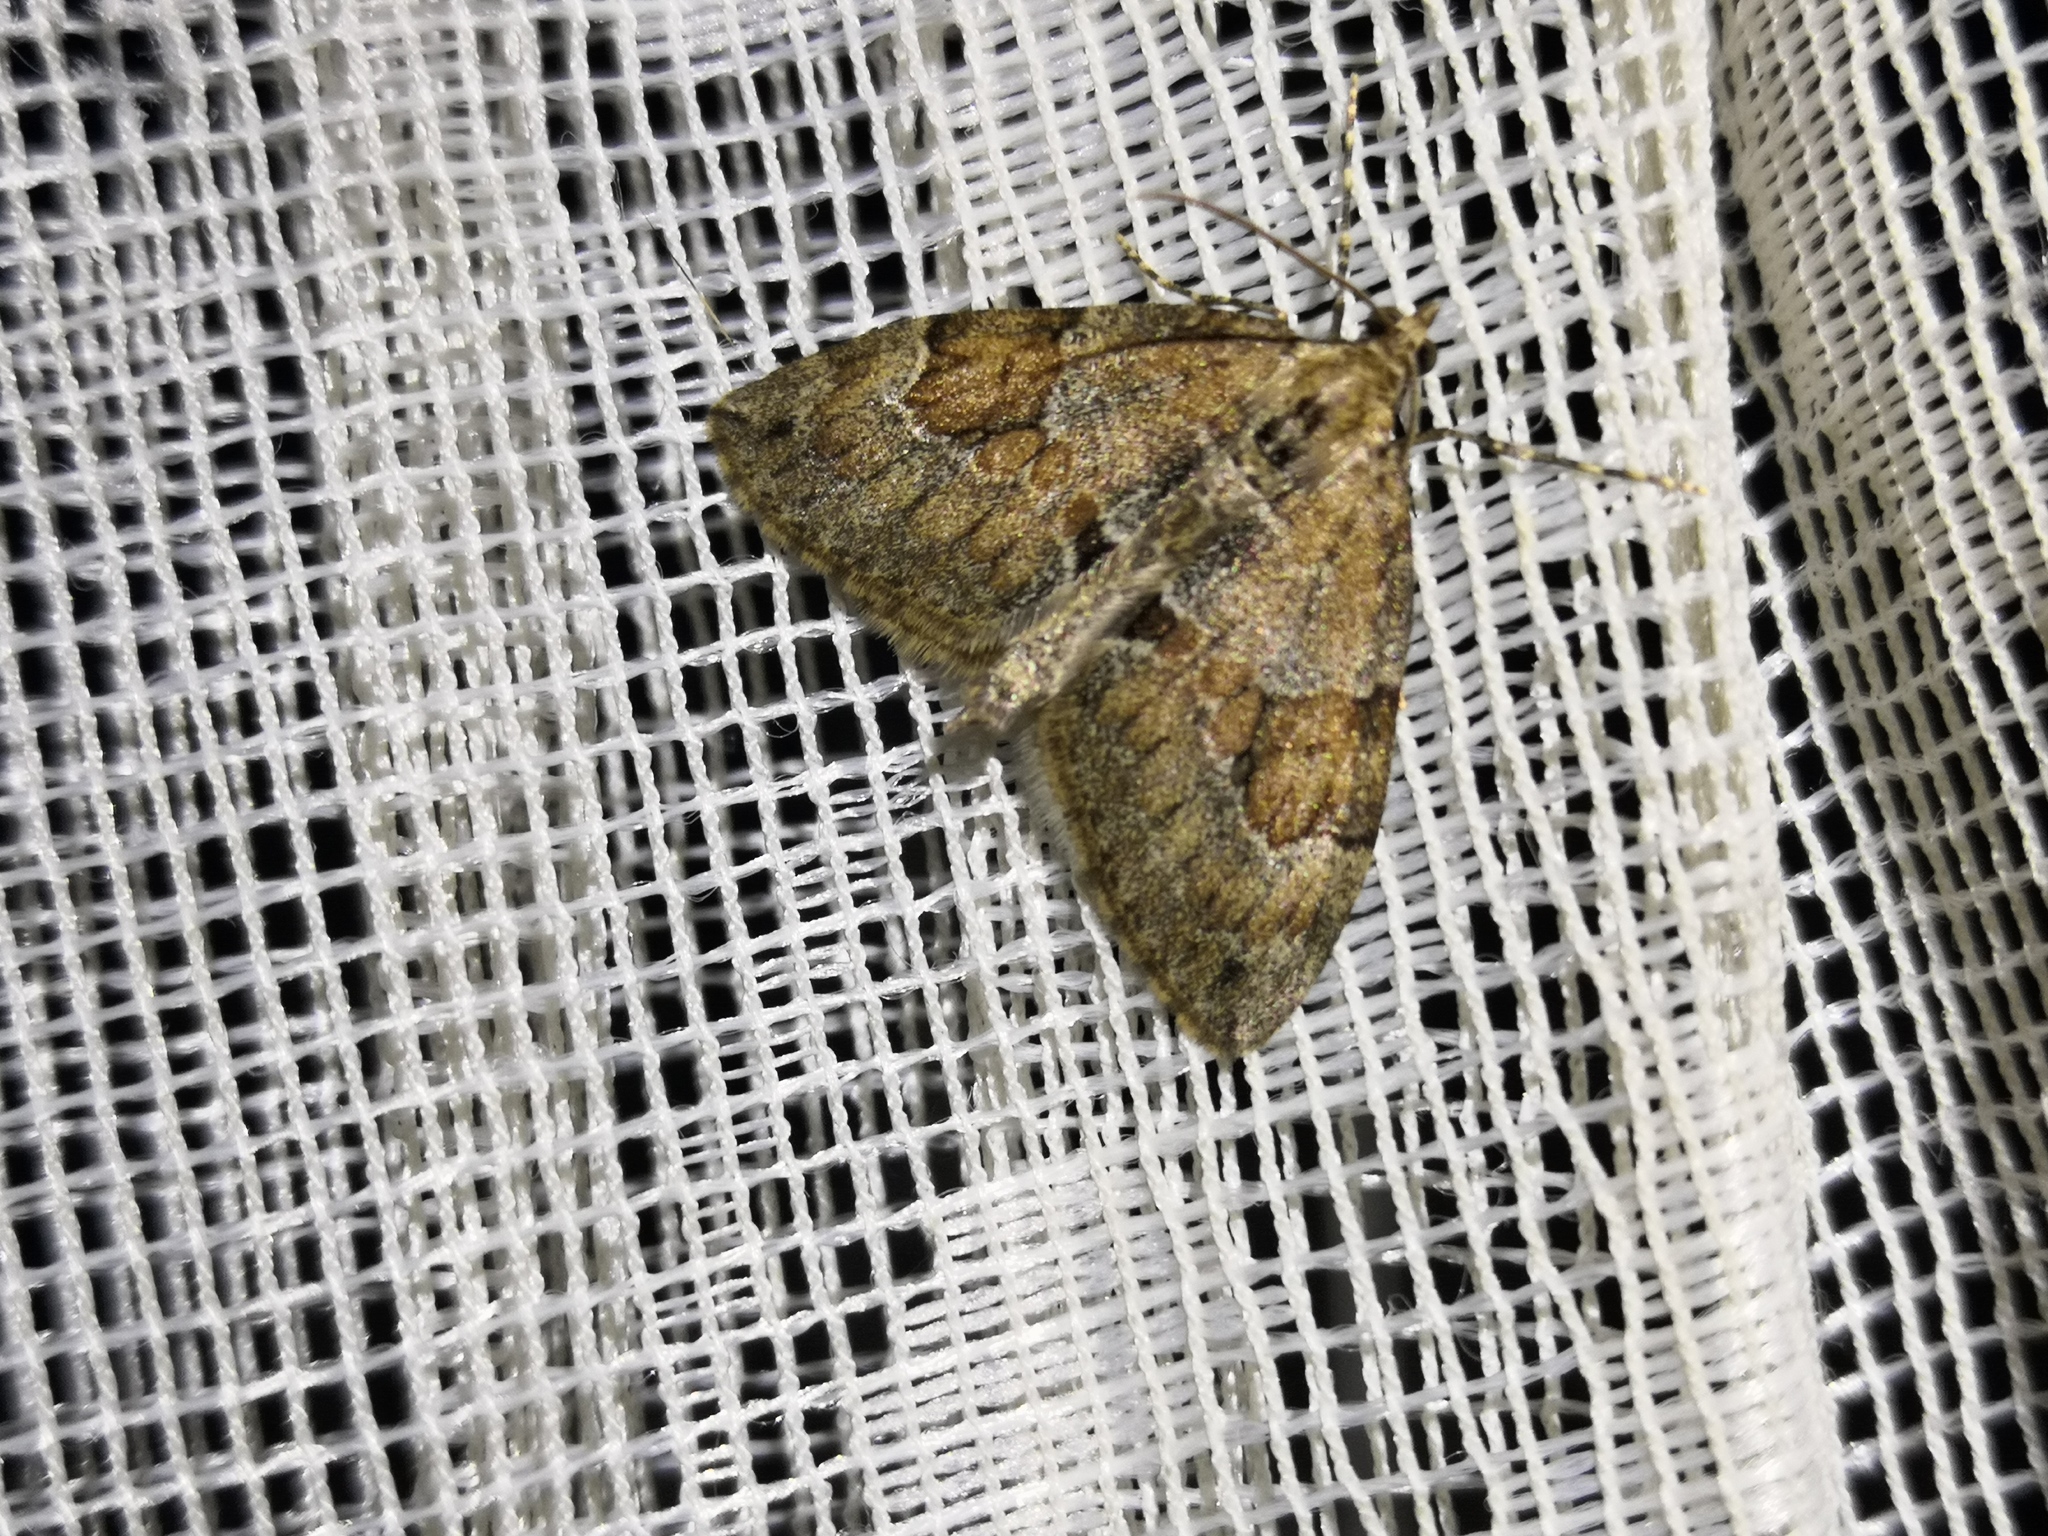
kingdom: Animalia
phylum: Arthropoda
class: Insecta
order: Lepidoptera
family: Geometridae
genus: Thera
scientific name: Thera obeliscata
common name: Grey pine carpet
